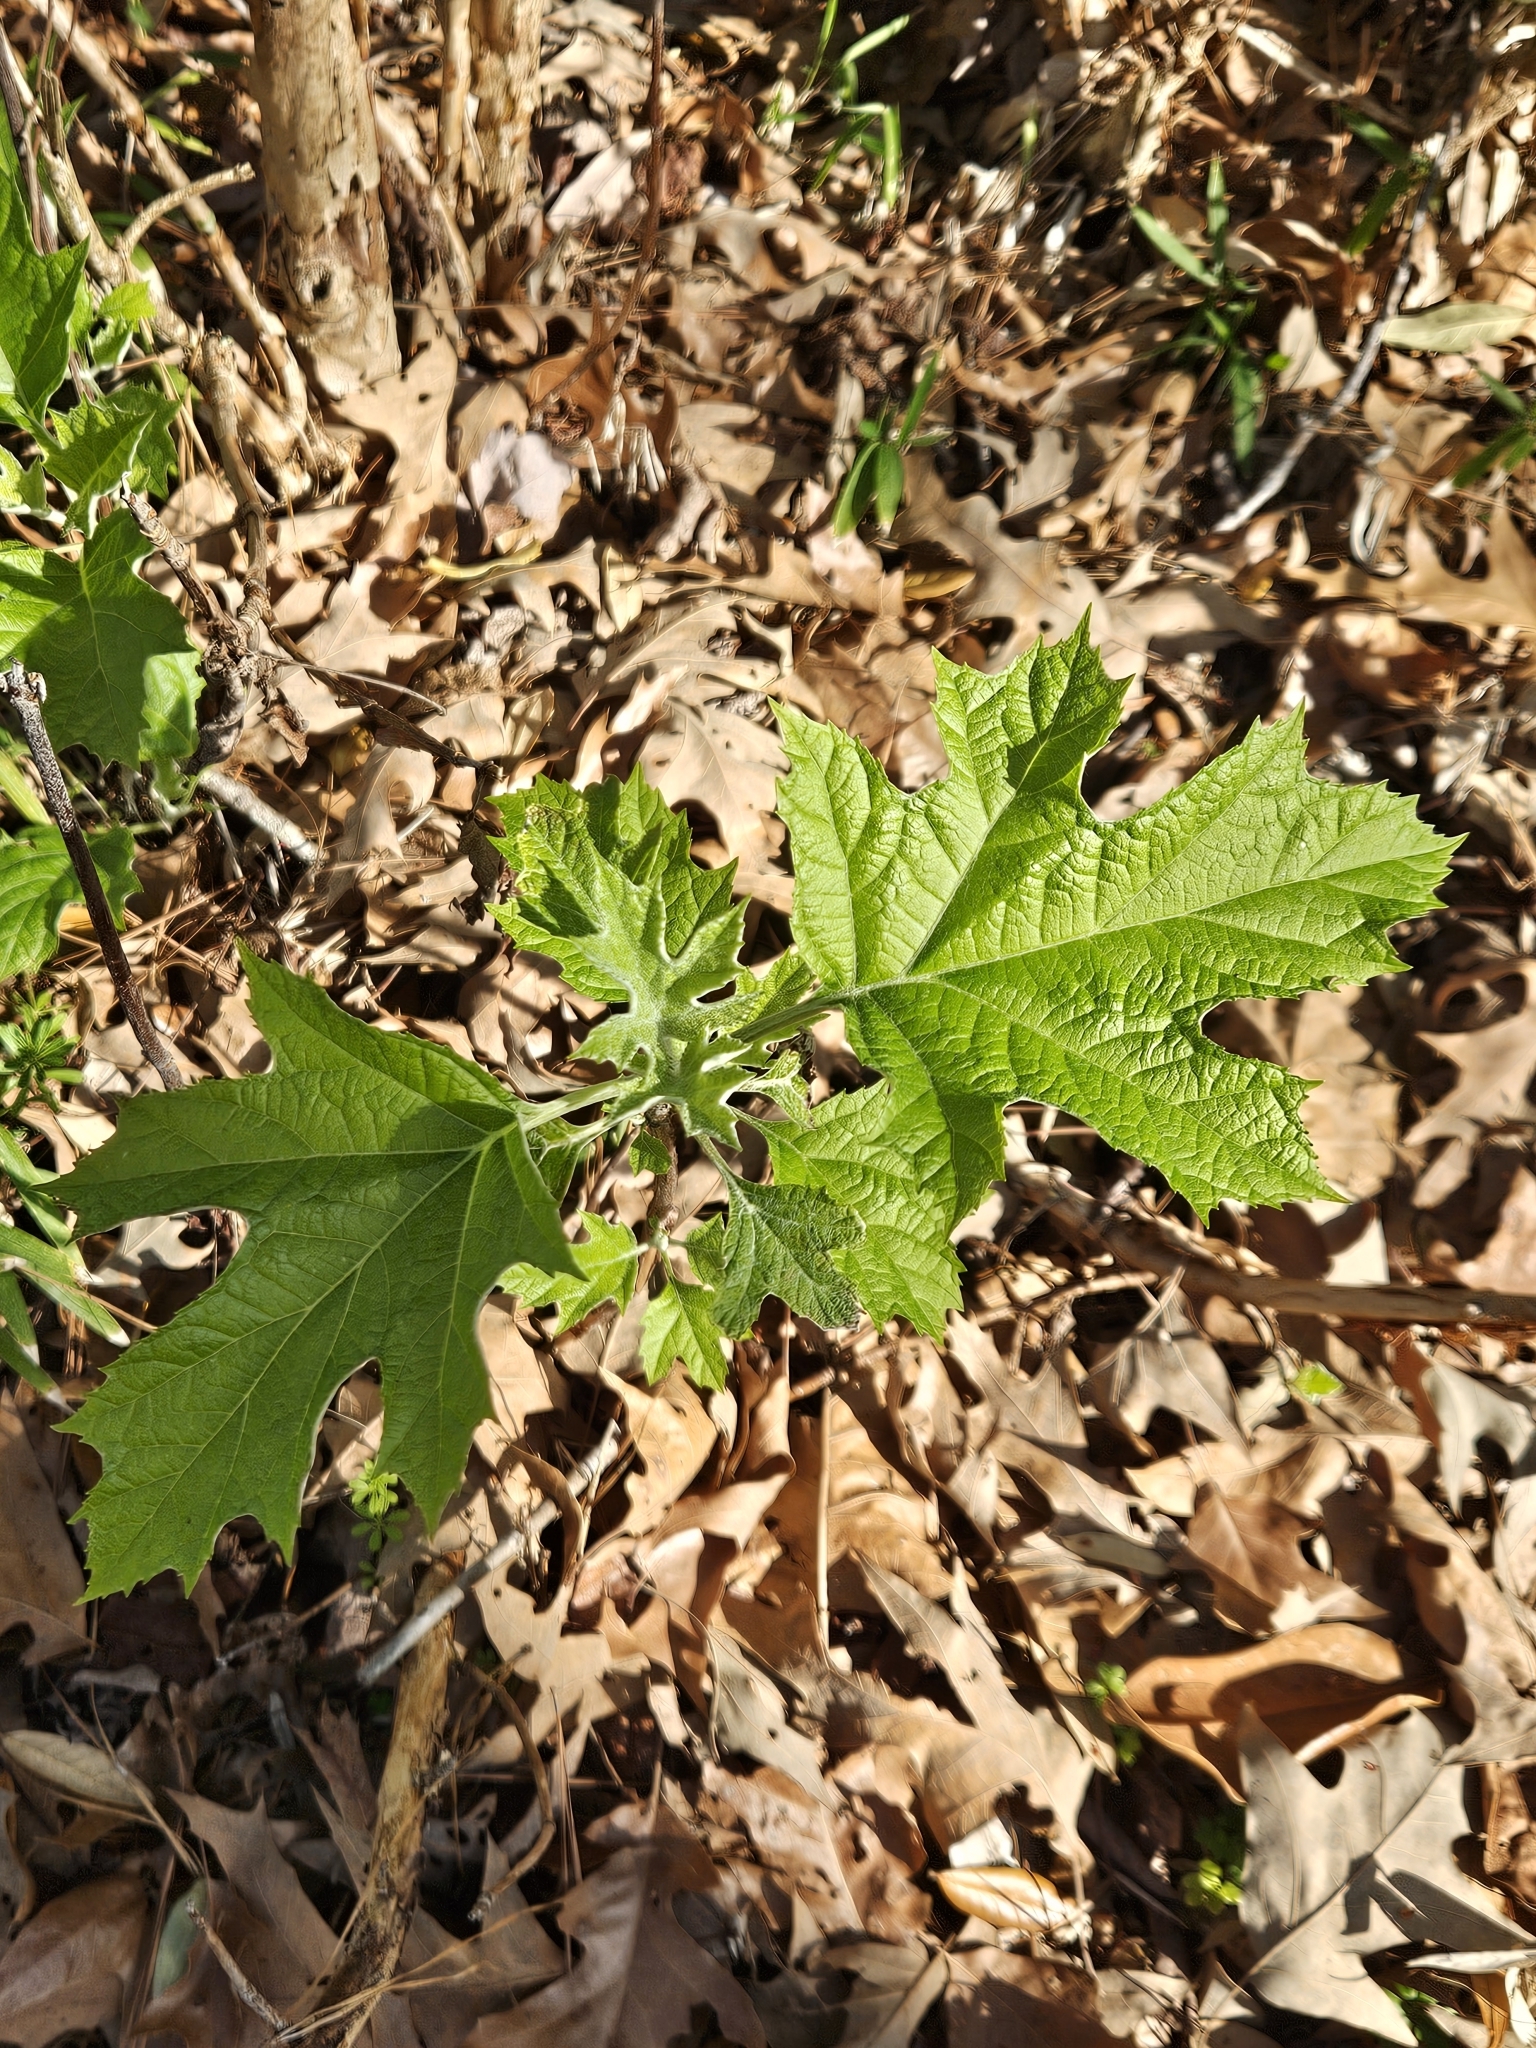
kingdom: Plantae
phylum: Tracheophyta
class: Magnoliopsida
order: Cornales
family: Hydrangeaceae
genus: Hydrangea
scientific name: Hydrangea quercifolia
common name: Oak-leaf hydrangea
